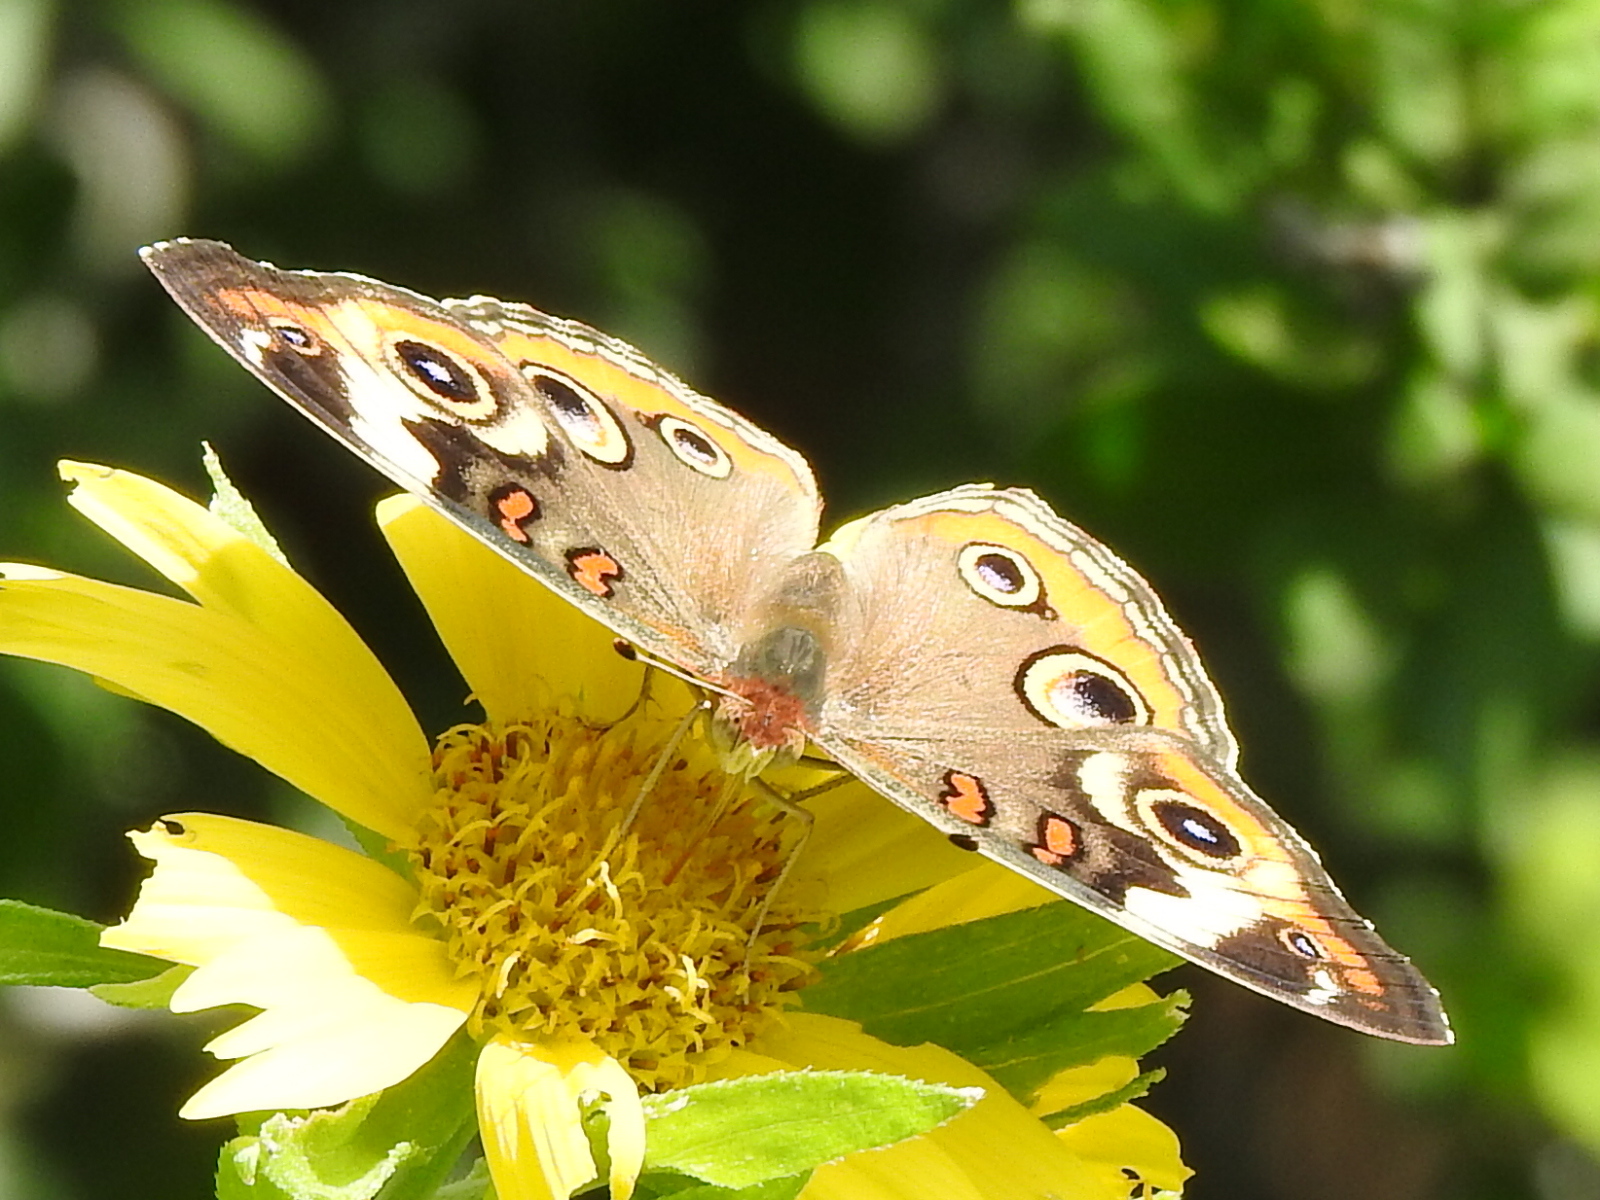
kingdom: Animalia
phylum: Arthropoda
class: Insecta
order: Lepidoptera
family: Nymphalidae
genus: Junonia
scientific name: Junonia coenia
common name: Common buckeye
